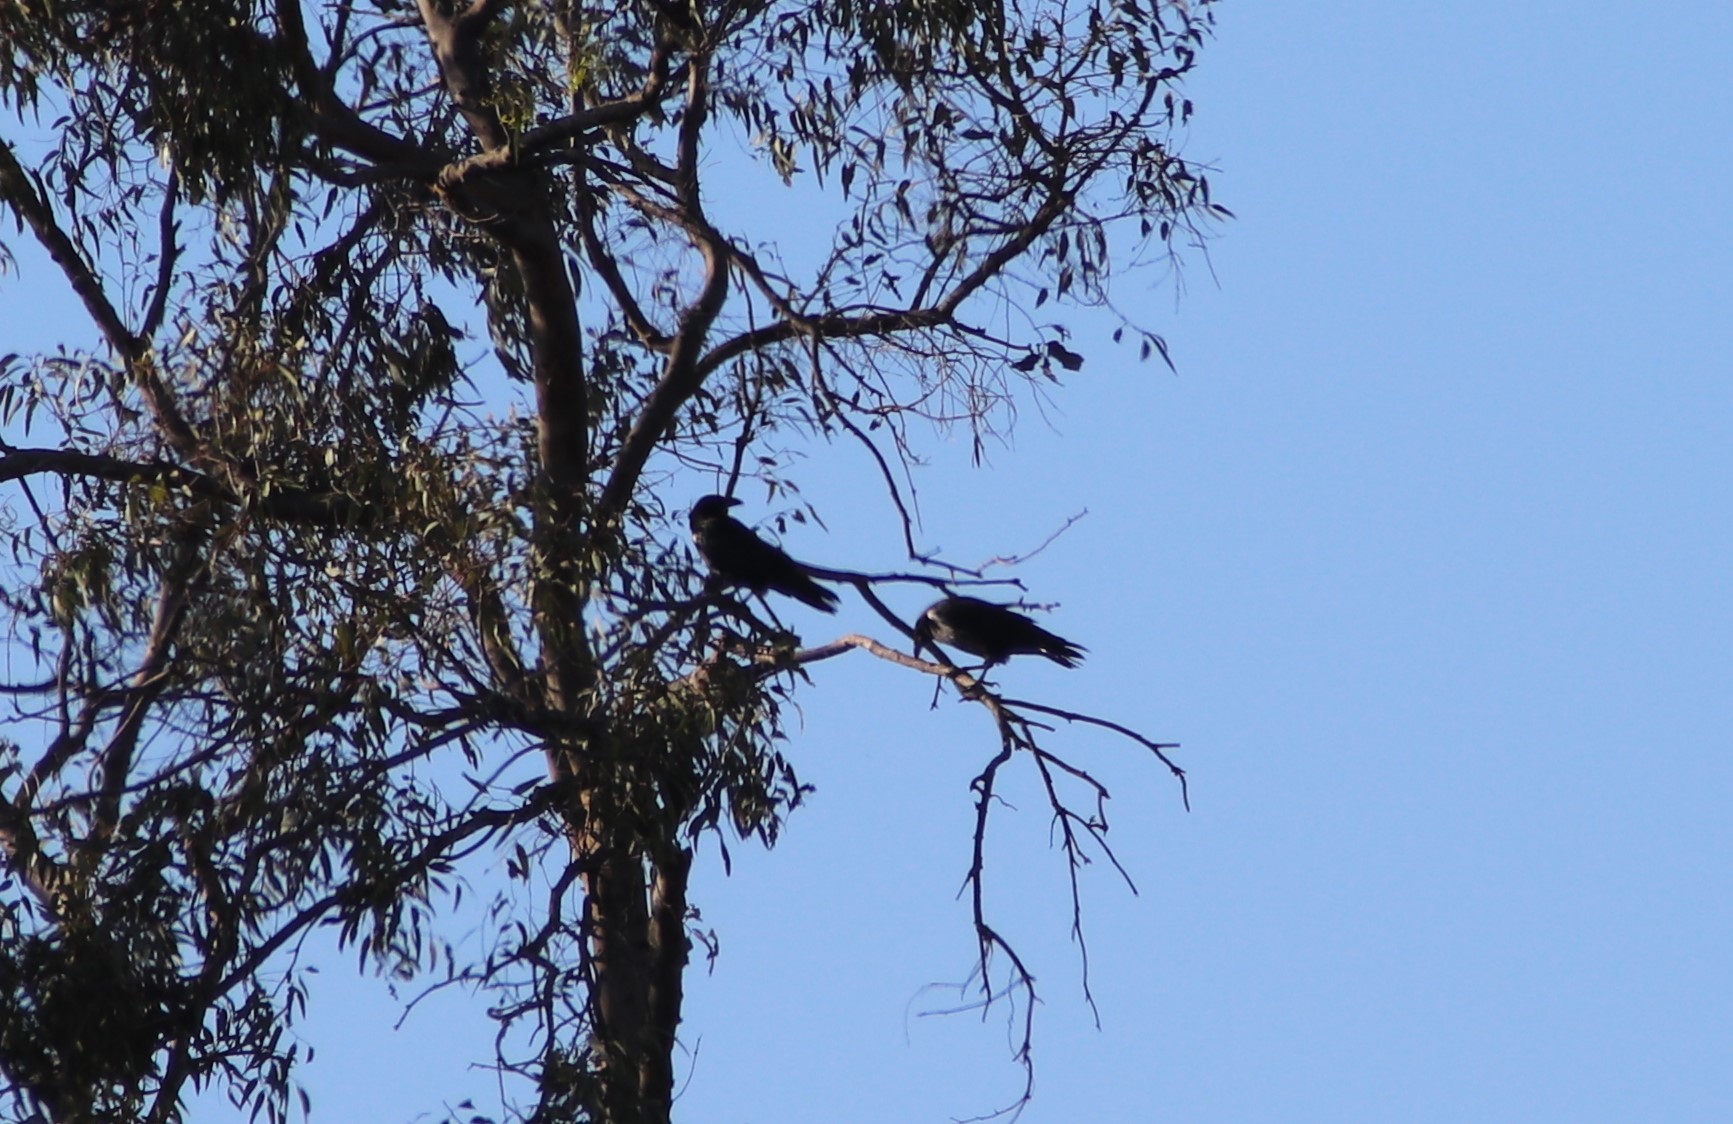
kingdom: Animalia
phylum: Chordata
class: Aves
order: Passeriformes
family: Corvidae
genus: Corvus
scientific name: Corvus corax
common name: Common raven
